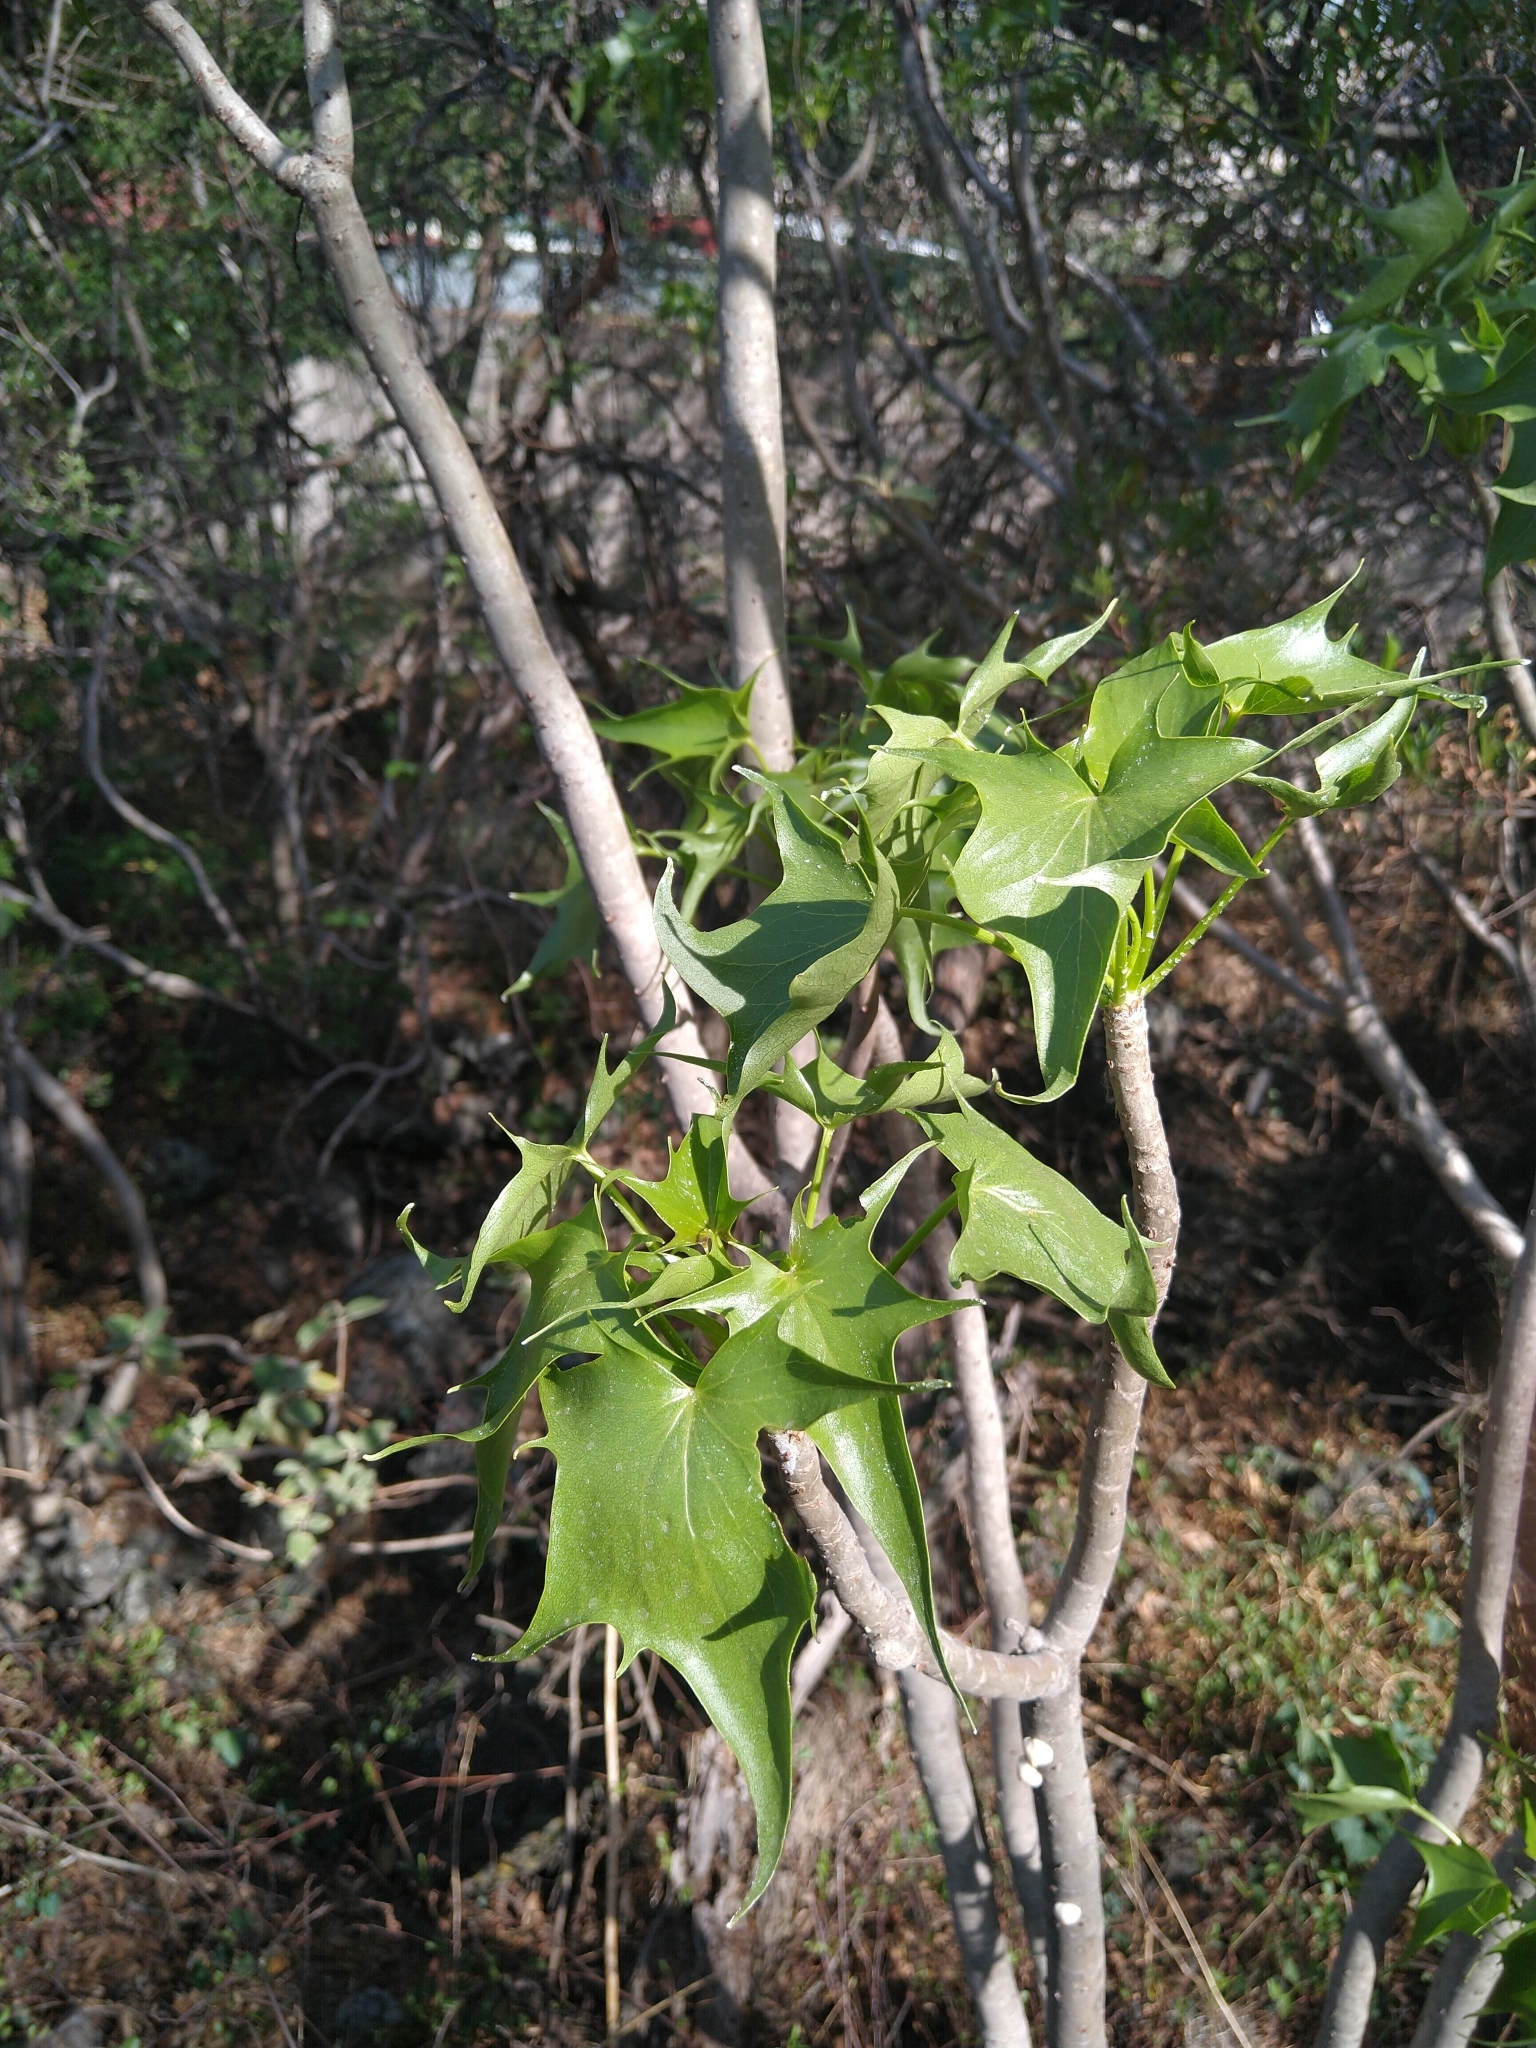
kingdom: Plantae
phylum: Tracheophyta
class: Magnoliopsida
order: Asterales
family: Asteraceae
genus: Pittocaulon
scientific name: Pittocaulon praecox
